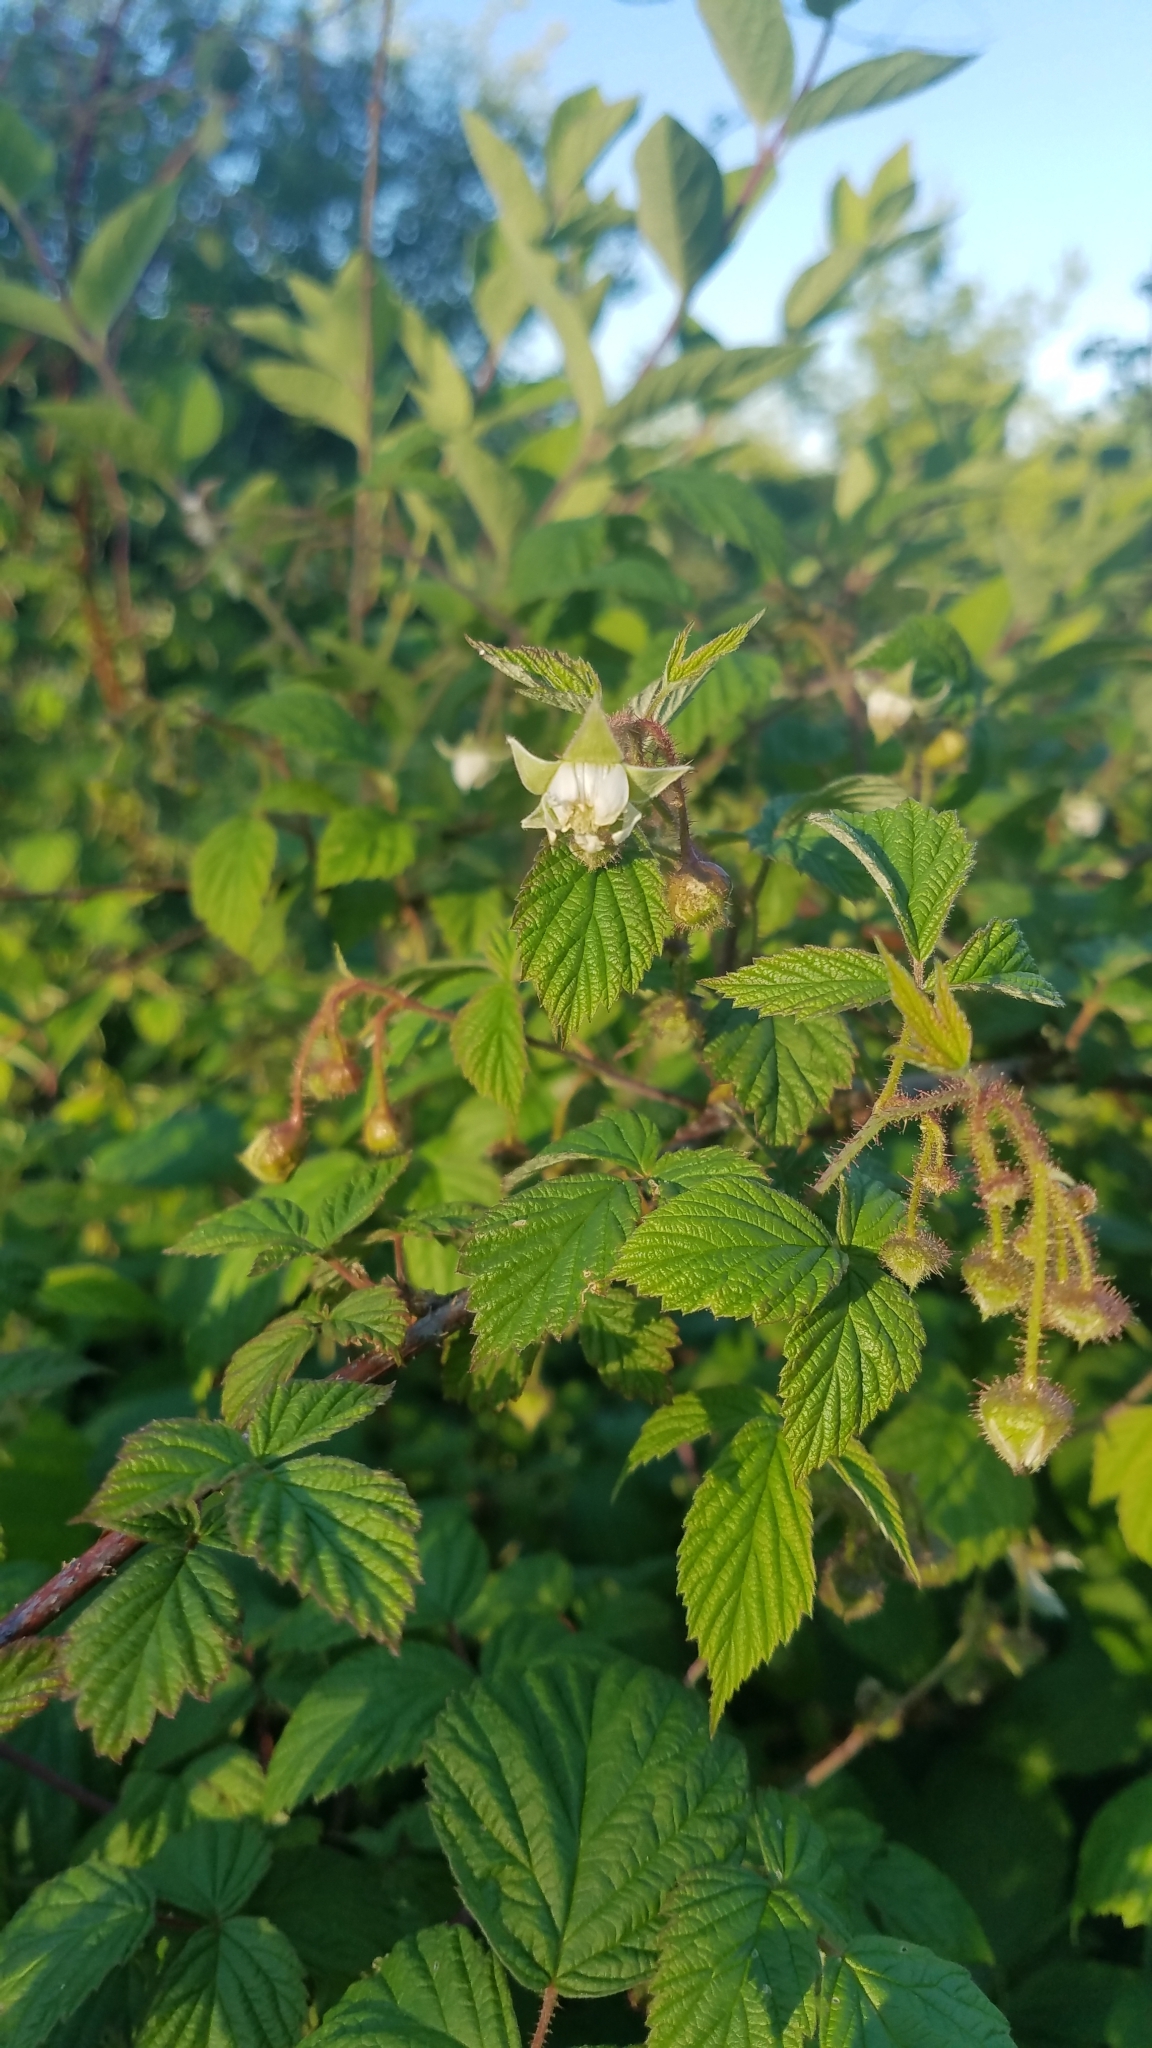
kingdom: Plantae
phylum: Tracheophyta
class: Magnoliopsida
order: Rosales
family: Rosaceae
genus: Rubus
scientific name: Rubus occidentalis
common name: Black raspberry
